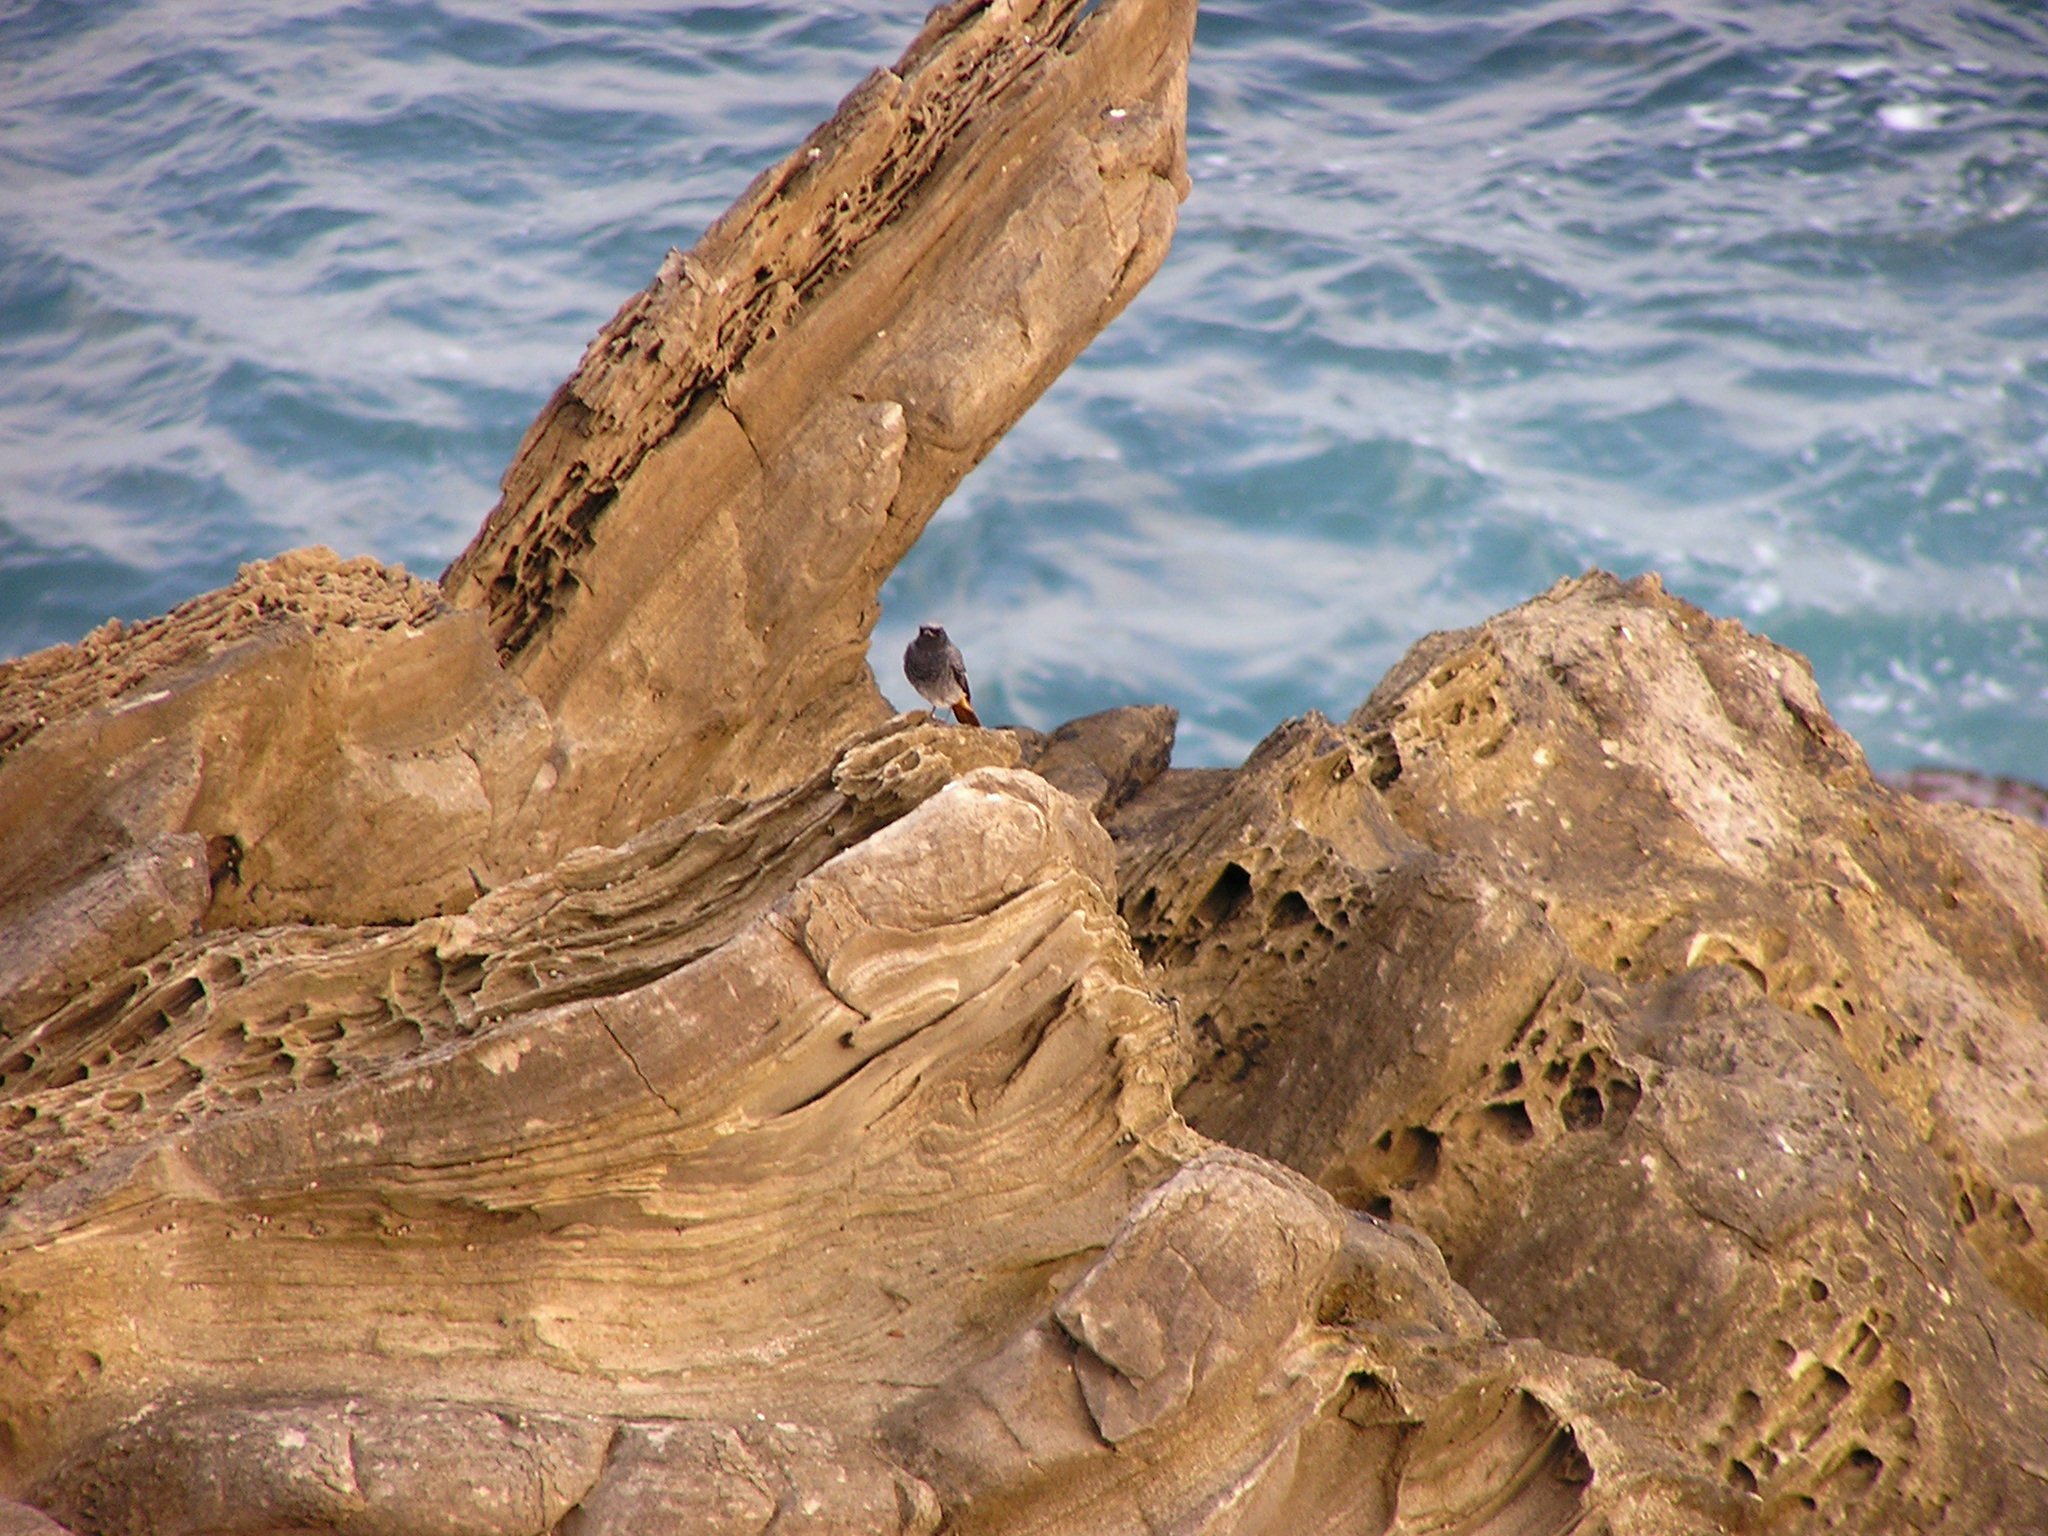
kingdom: Animalia
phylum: Chordata
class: Aves
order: Passeriformes
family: Muscicapidae
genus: Phoenicurus
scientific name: Phoenicurus ochruros
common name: Black redstart
